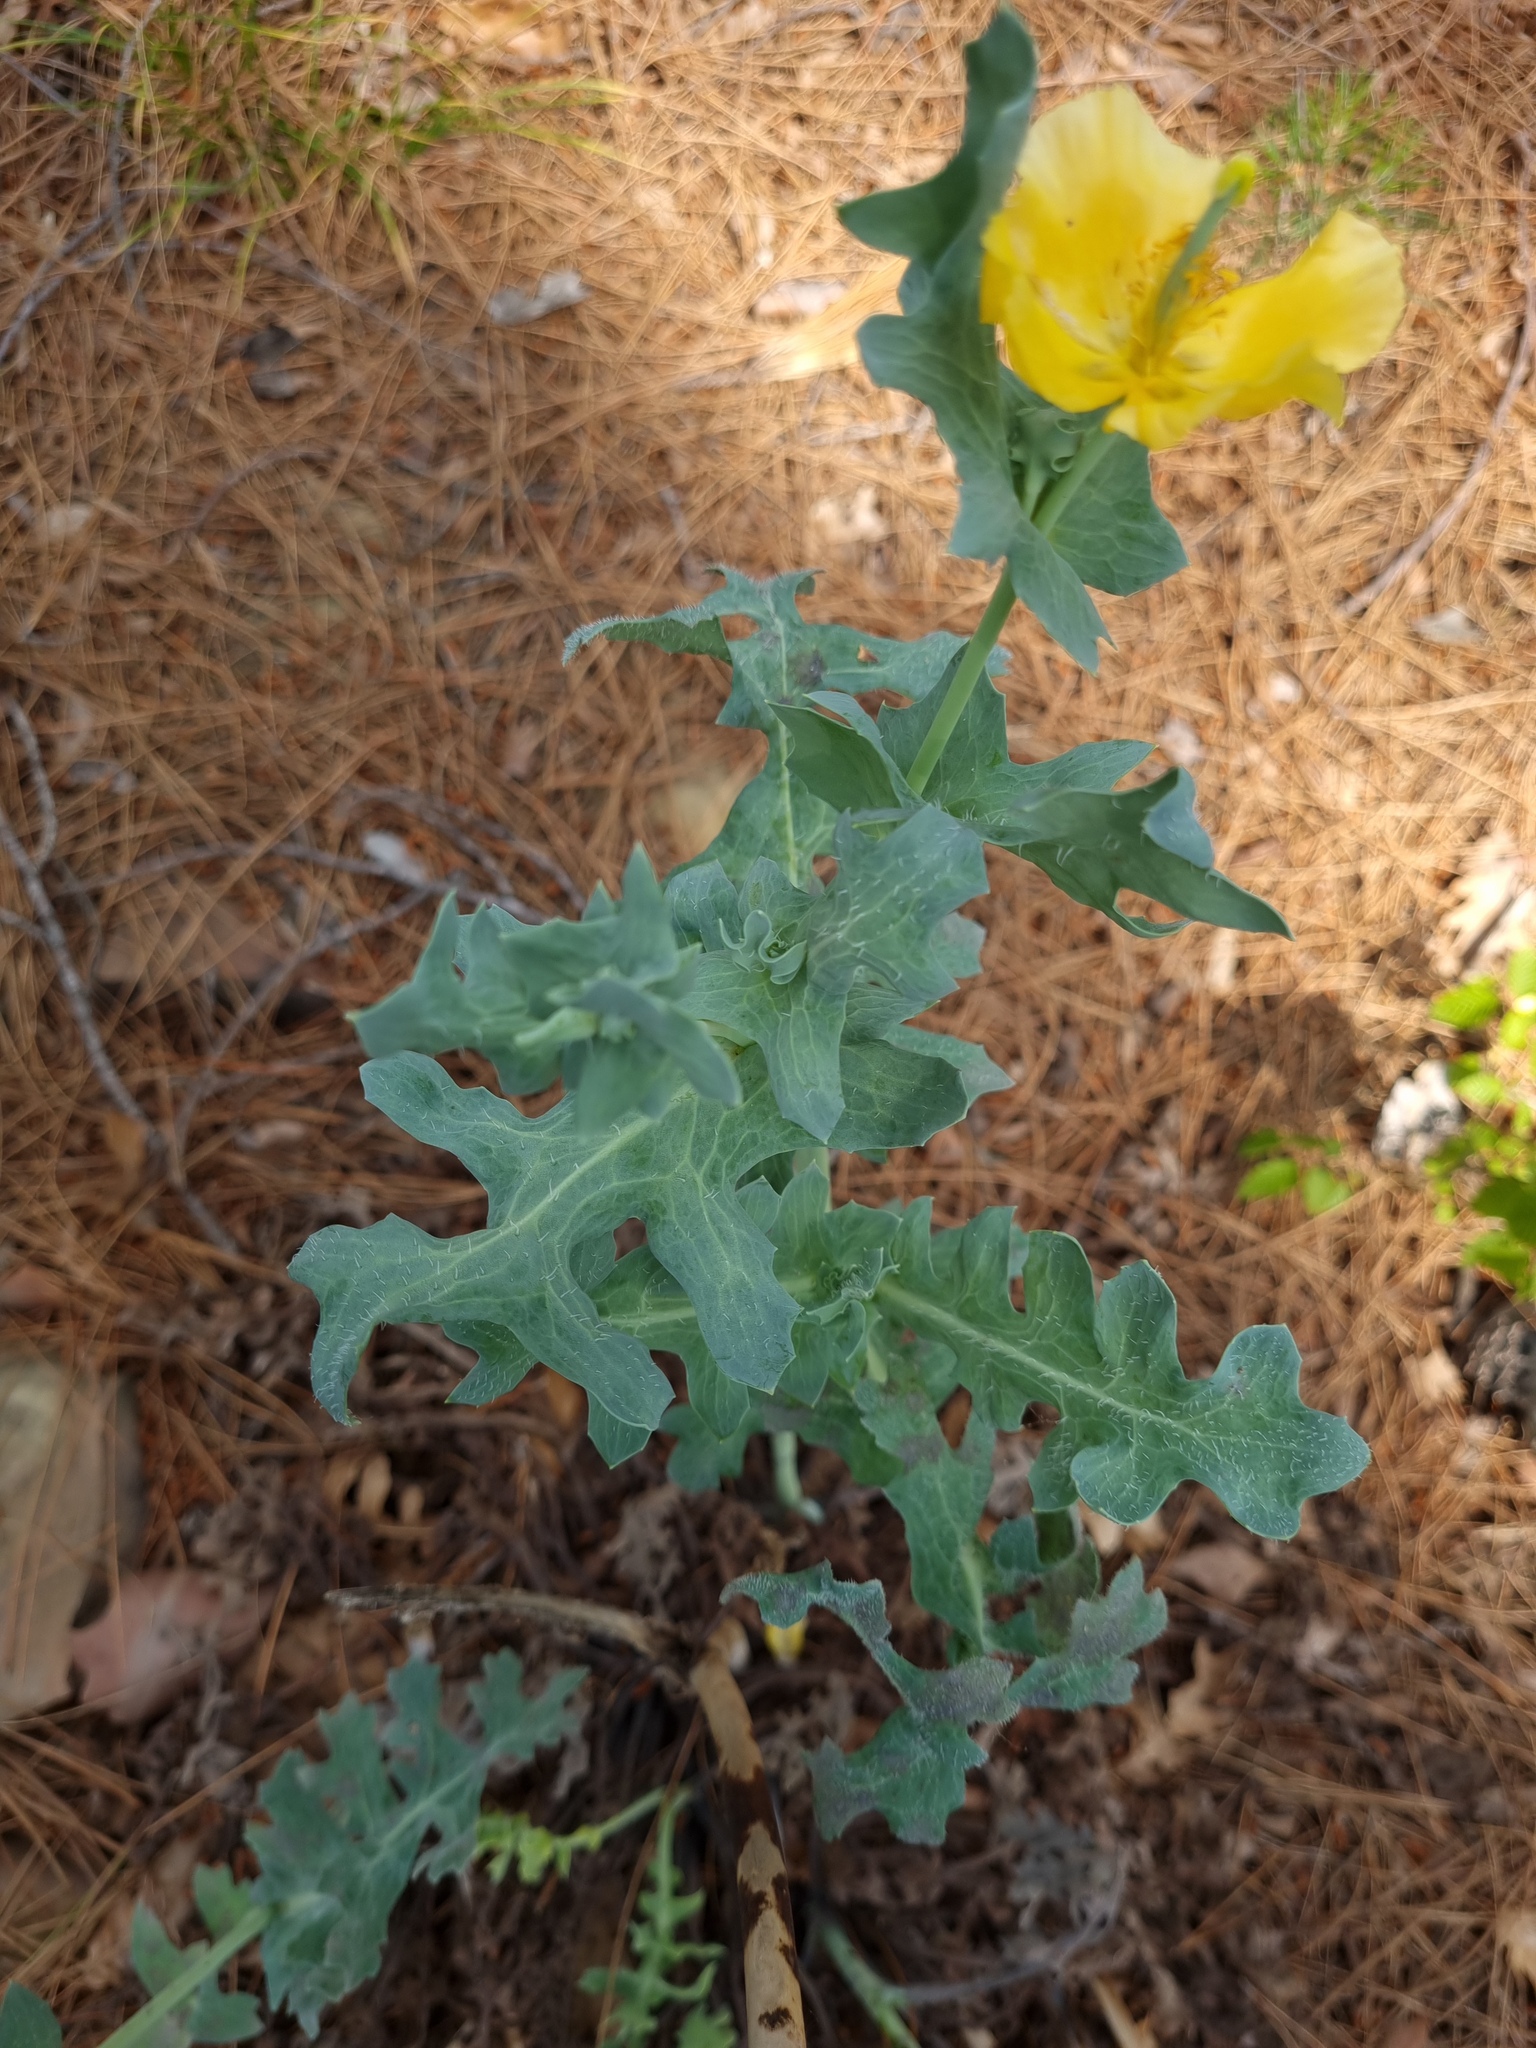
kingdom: Plantae
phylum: Tracheophyta
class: Magnoliopsida
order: Ranunculales
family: Papaveraceae
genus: Glaucium
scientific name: Glaucium flavum
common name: Yellow horned-poppy
